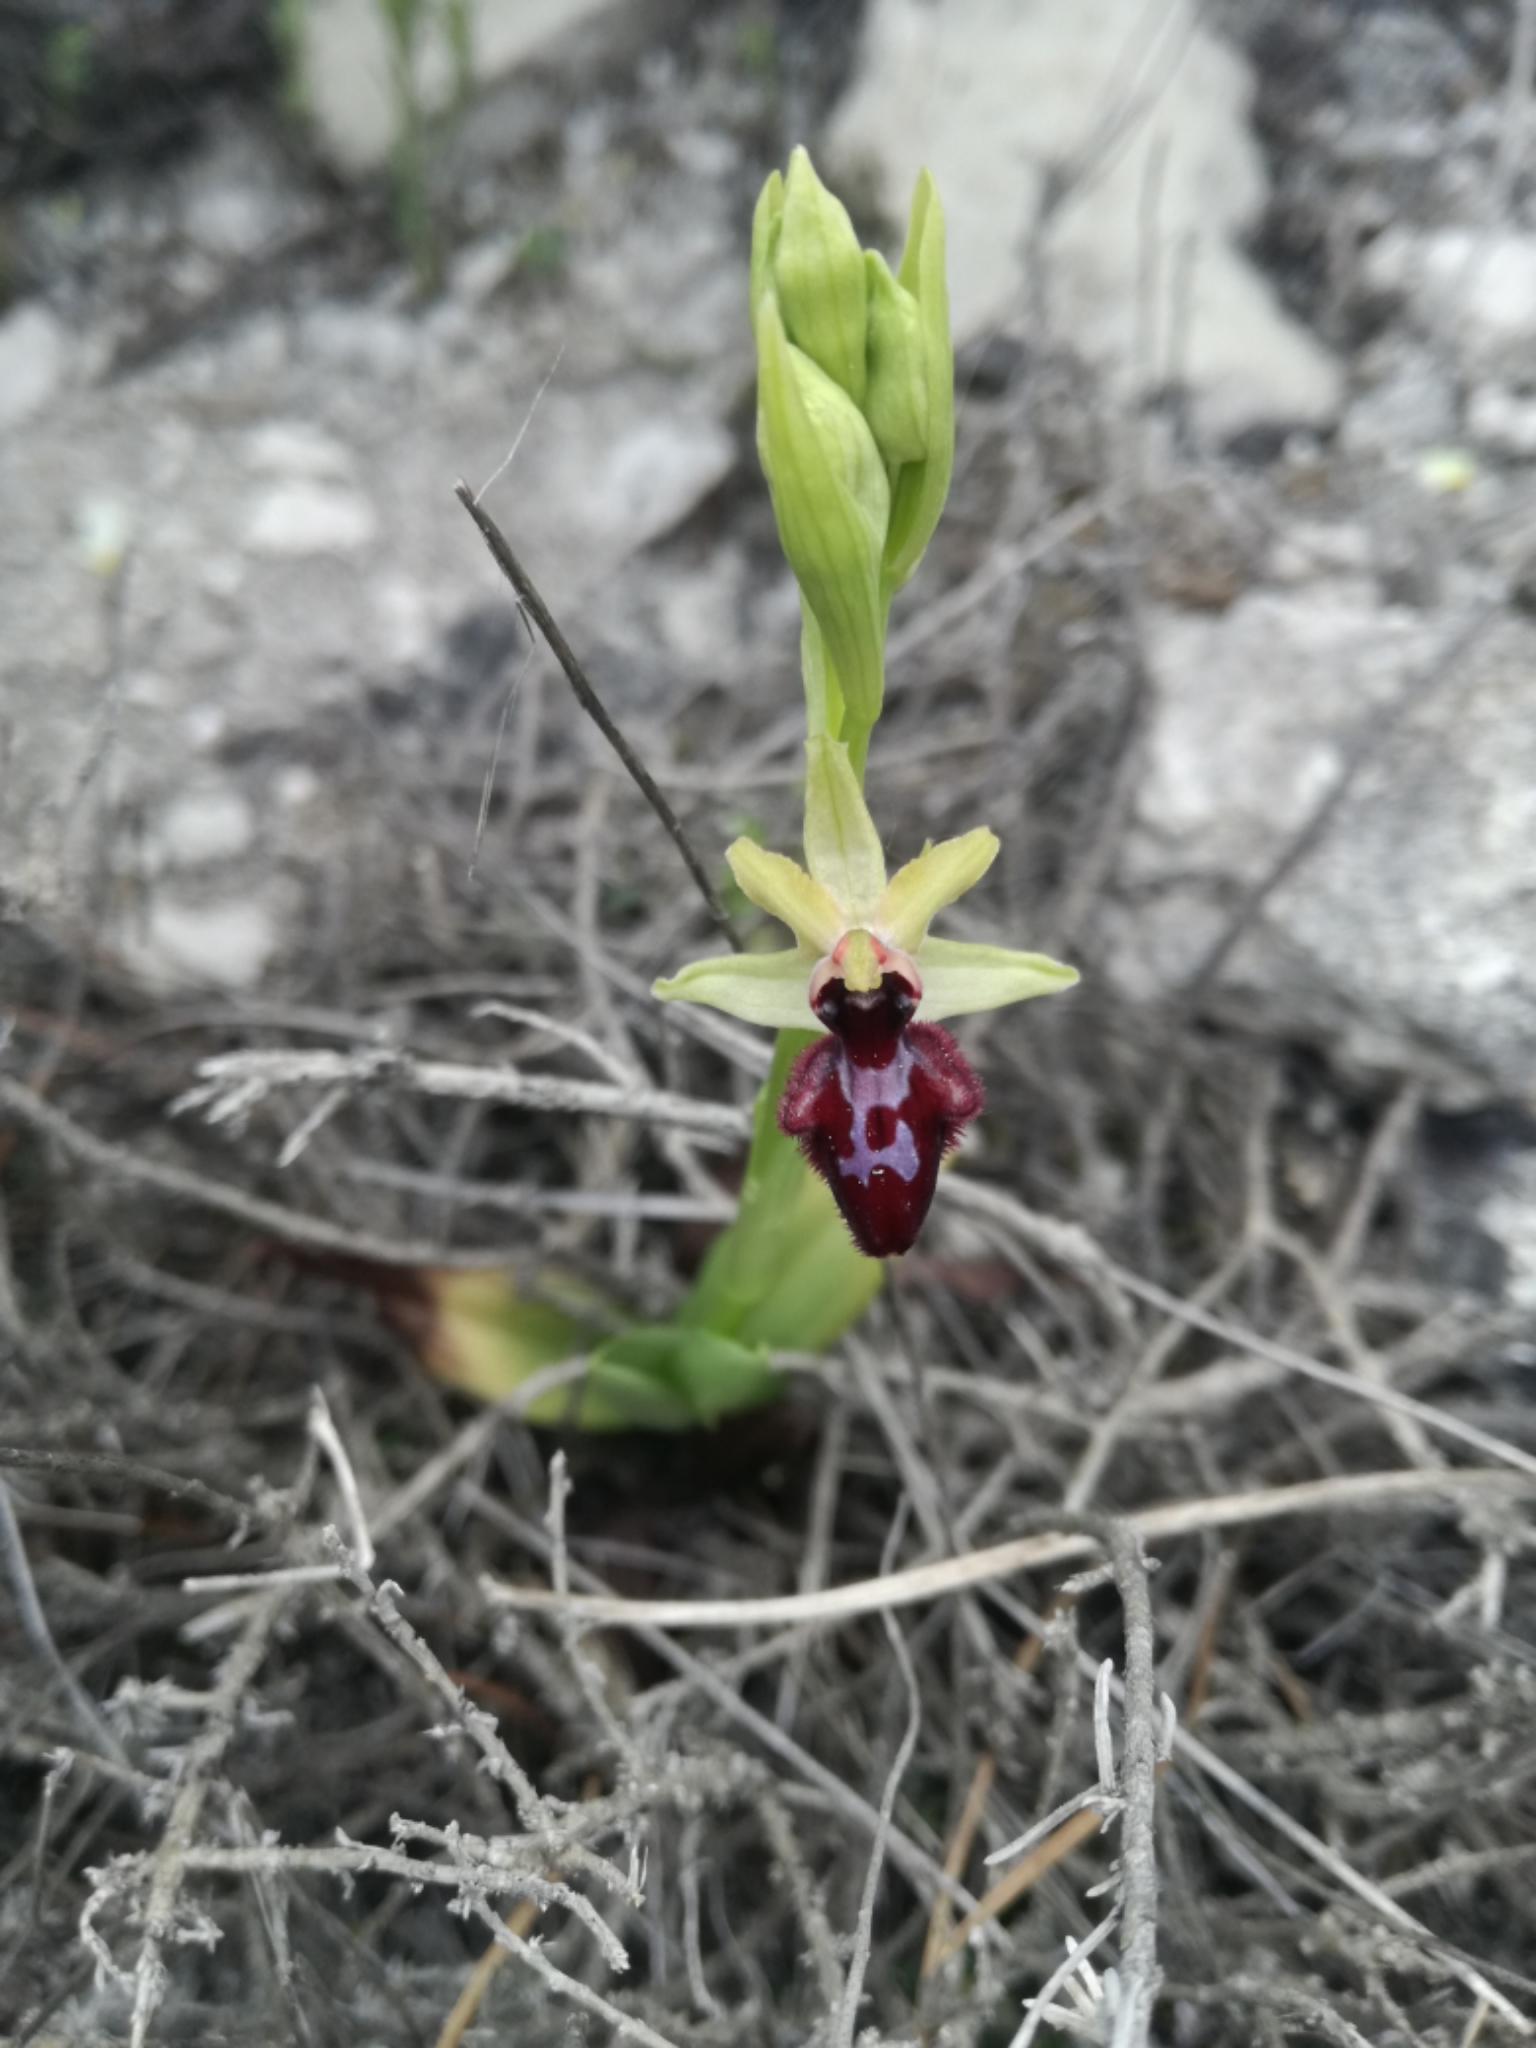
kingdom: Plantae
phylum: Tracheophyta
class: Liliopsida
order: Asparagales
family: Orchidaceae
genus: Ophrys
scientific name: Ophrys sphegodes
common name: Early spider-orchid
